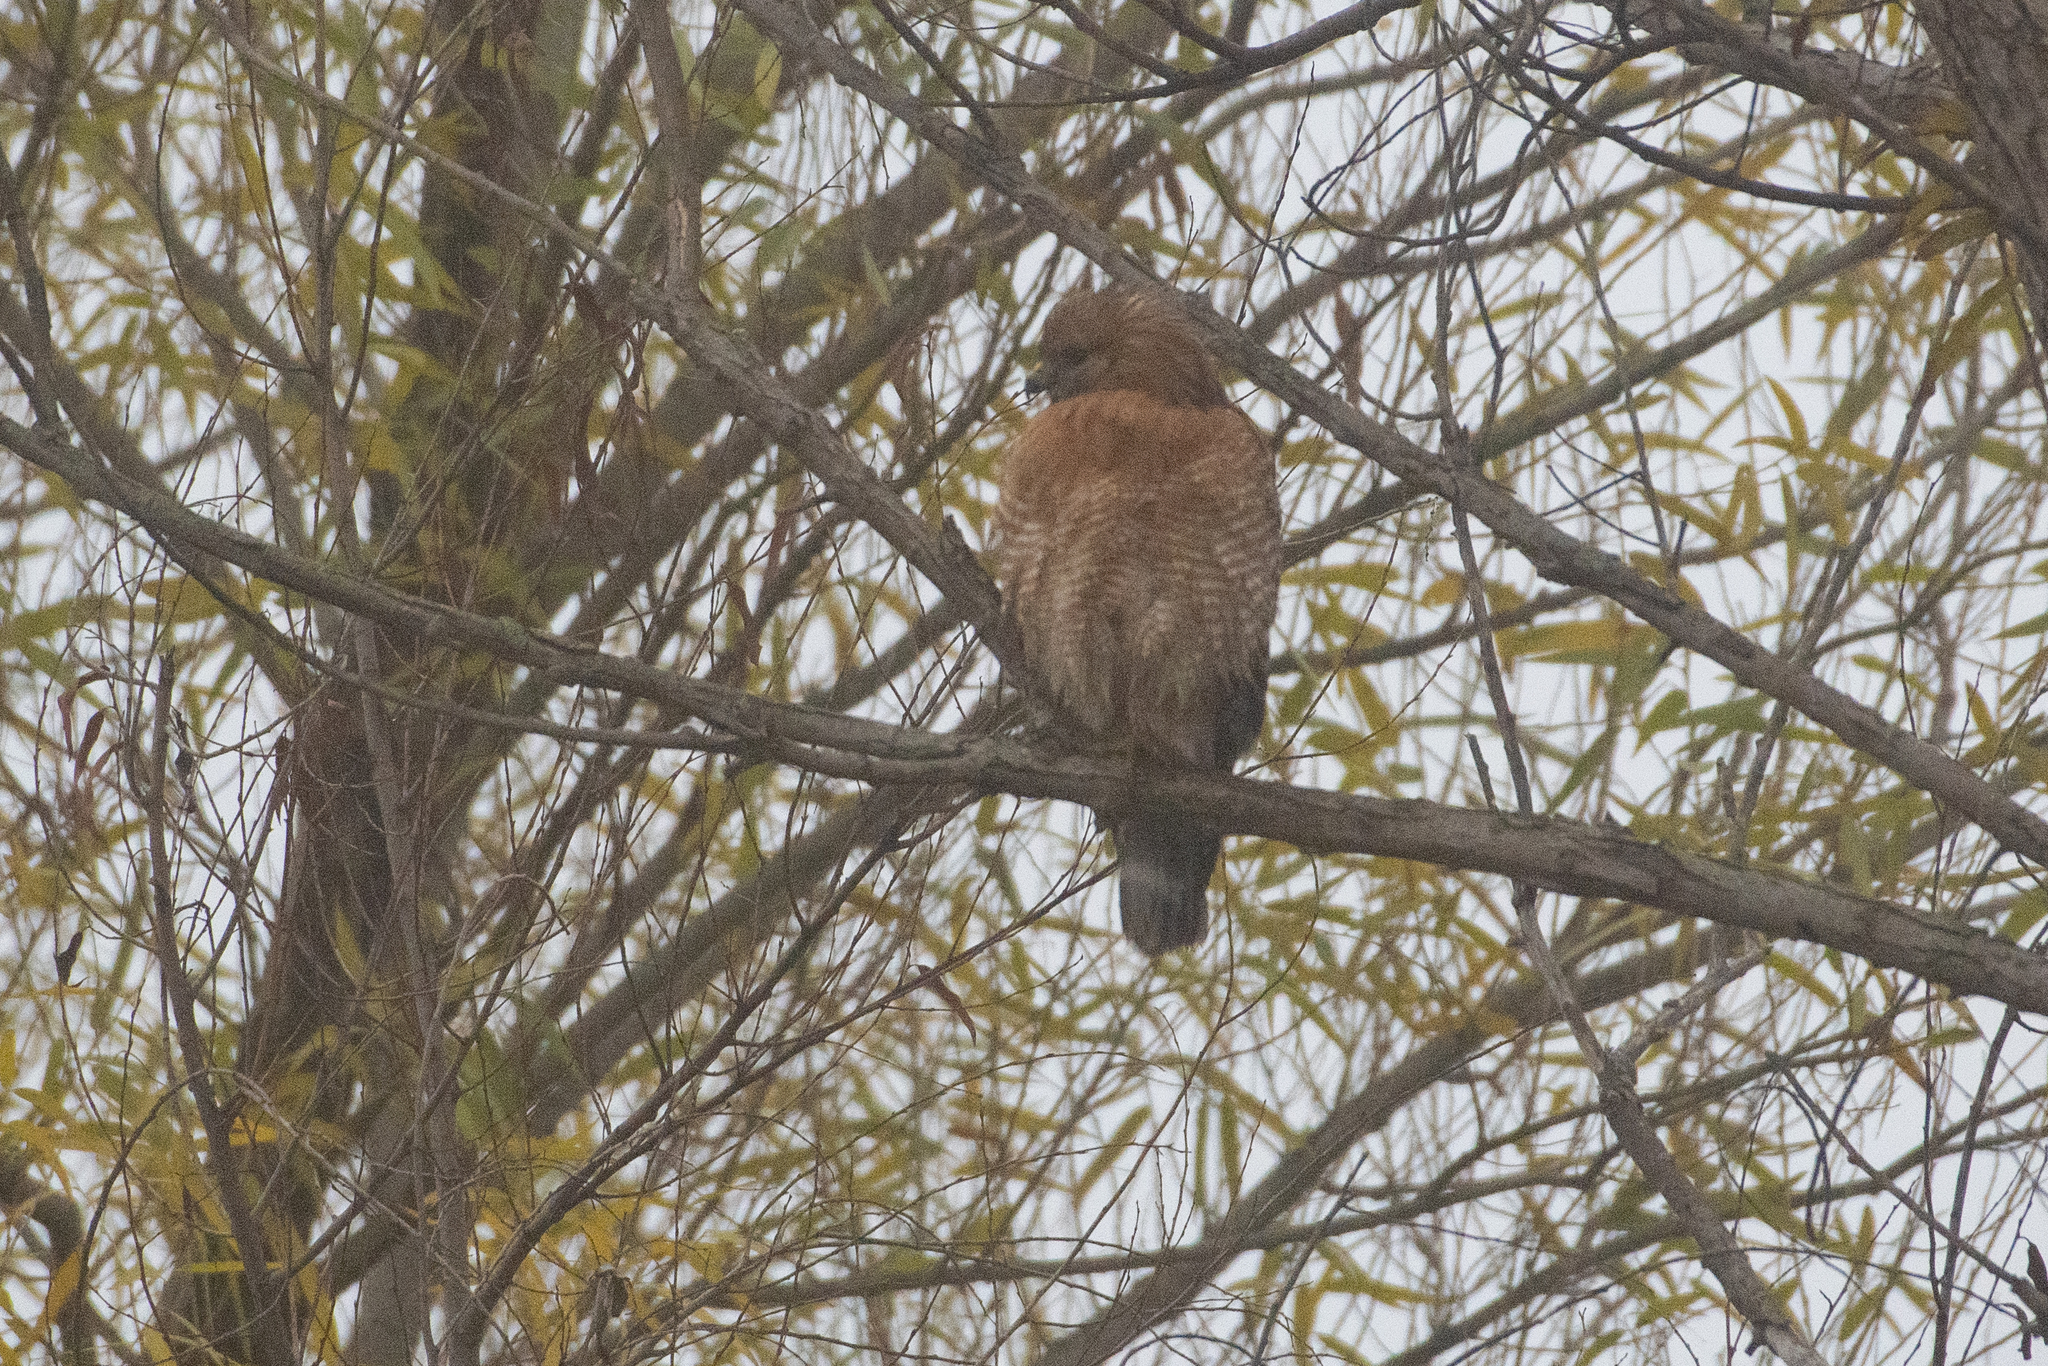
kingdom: Animalia
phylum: Chordata
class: Aves
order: Accipitriformes
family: Accipitridae
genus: Buteo
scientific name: Buteo lineatus
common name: Red-shouldered hawk
